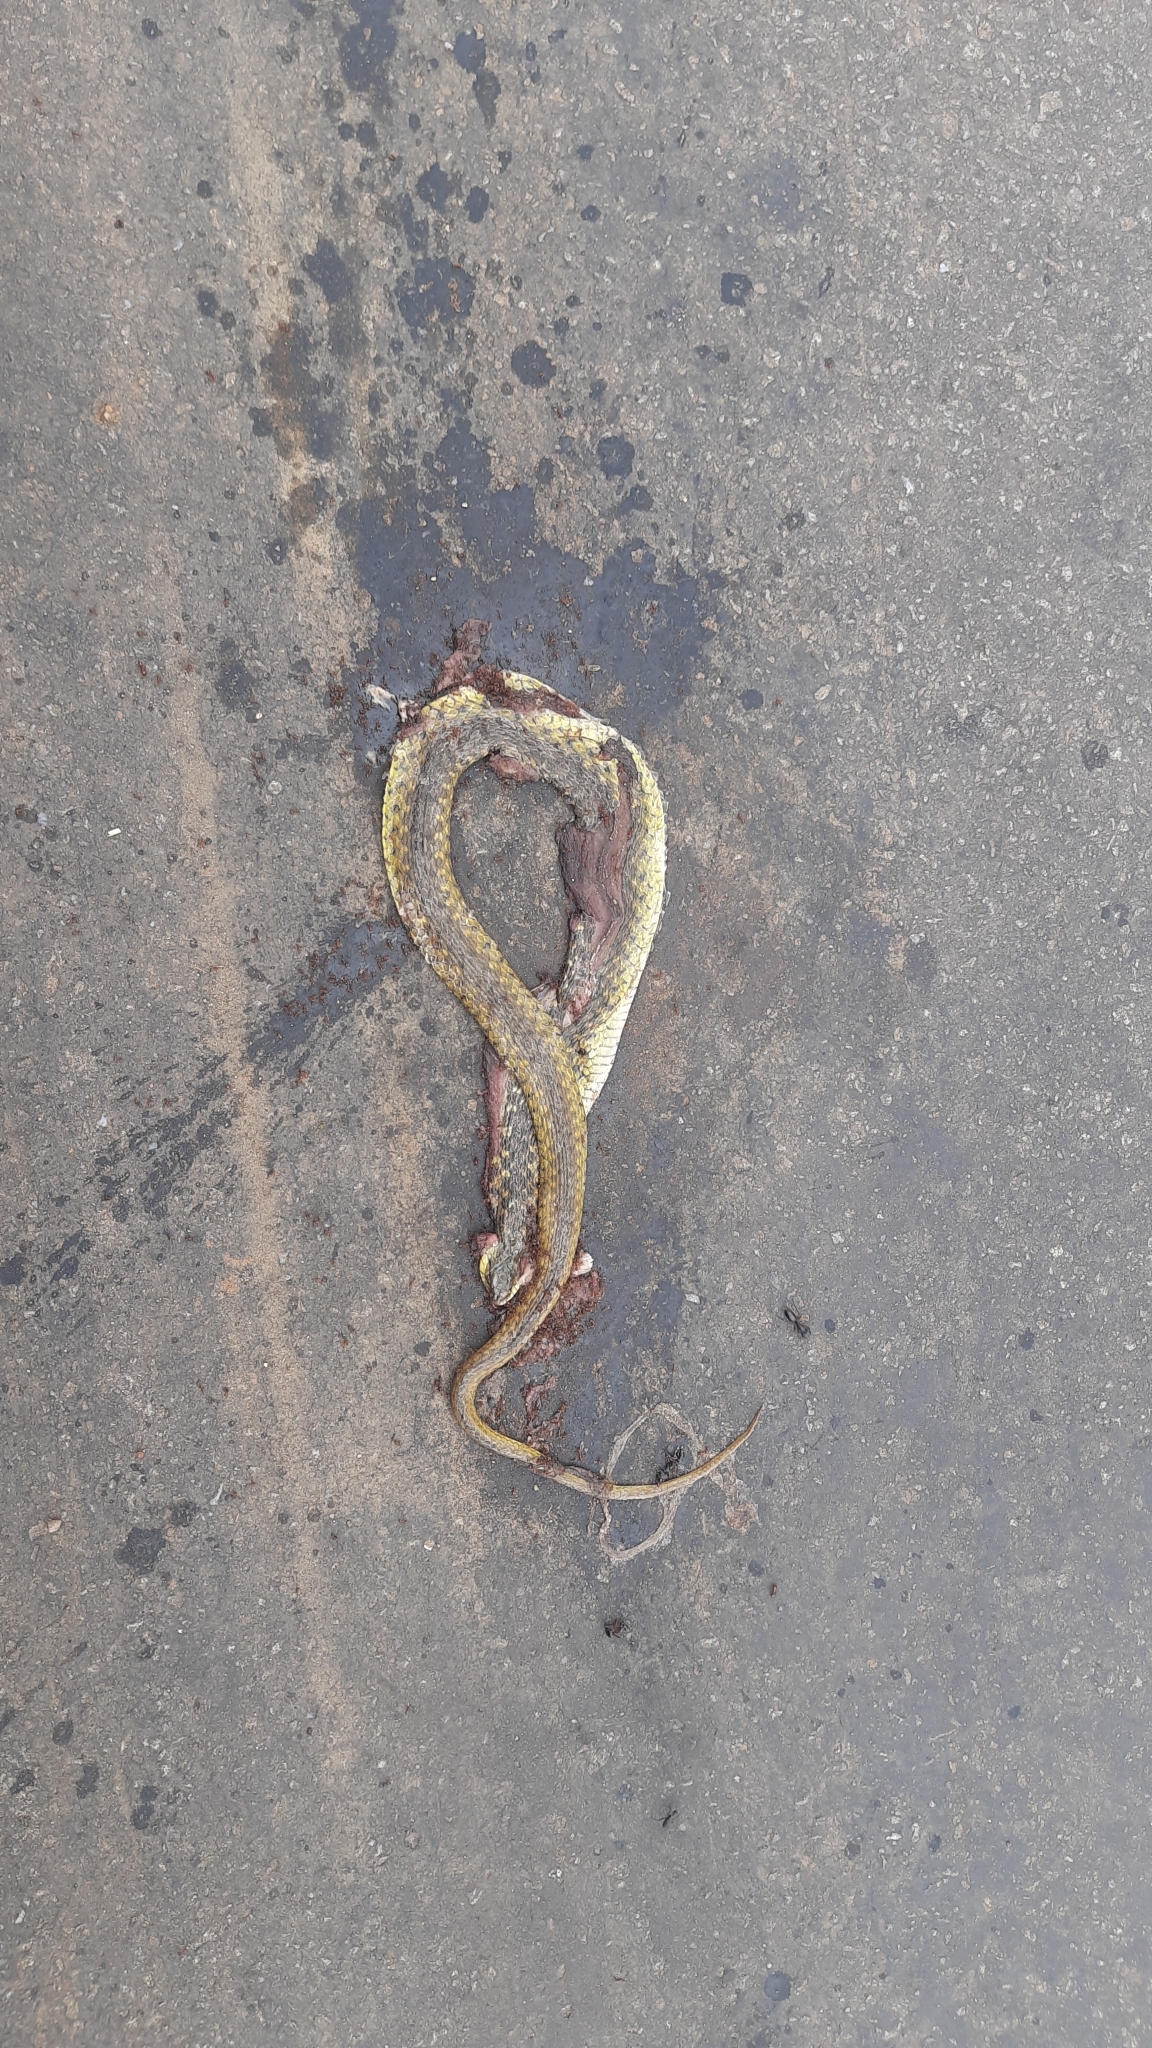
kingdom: Animalia
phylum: Chordata
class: Squamata
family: Colubridae
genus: Fowlea
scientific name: Fowlea piscator
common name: Asiatic water snake
